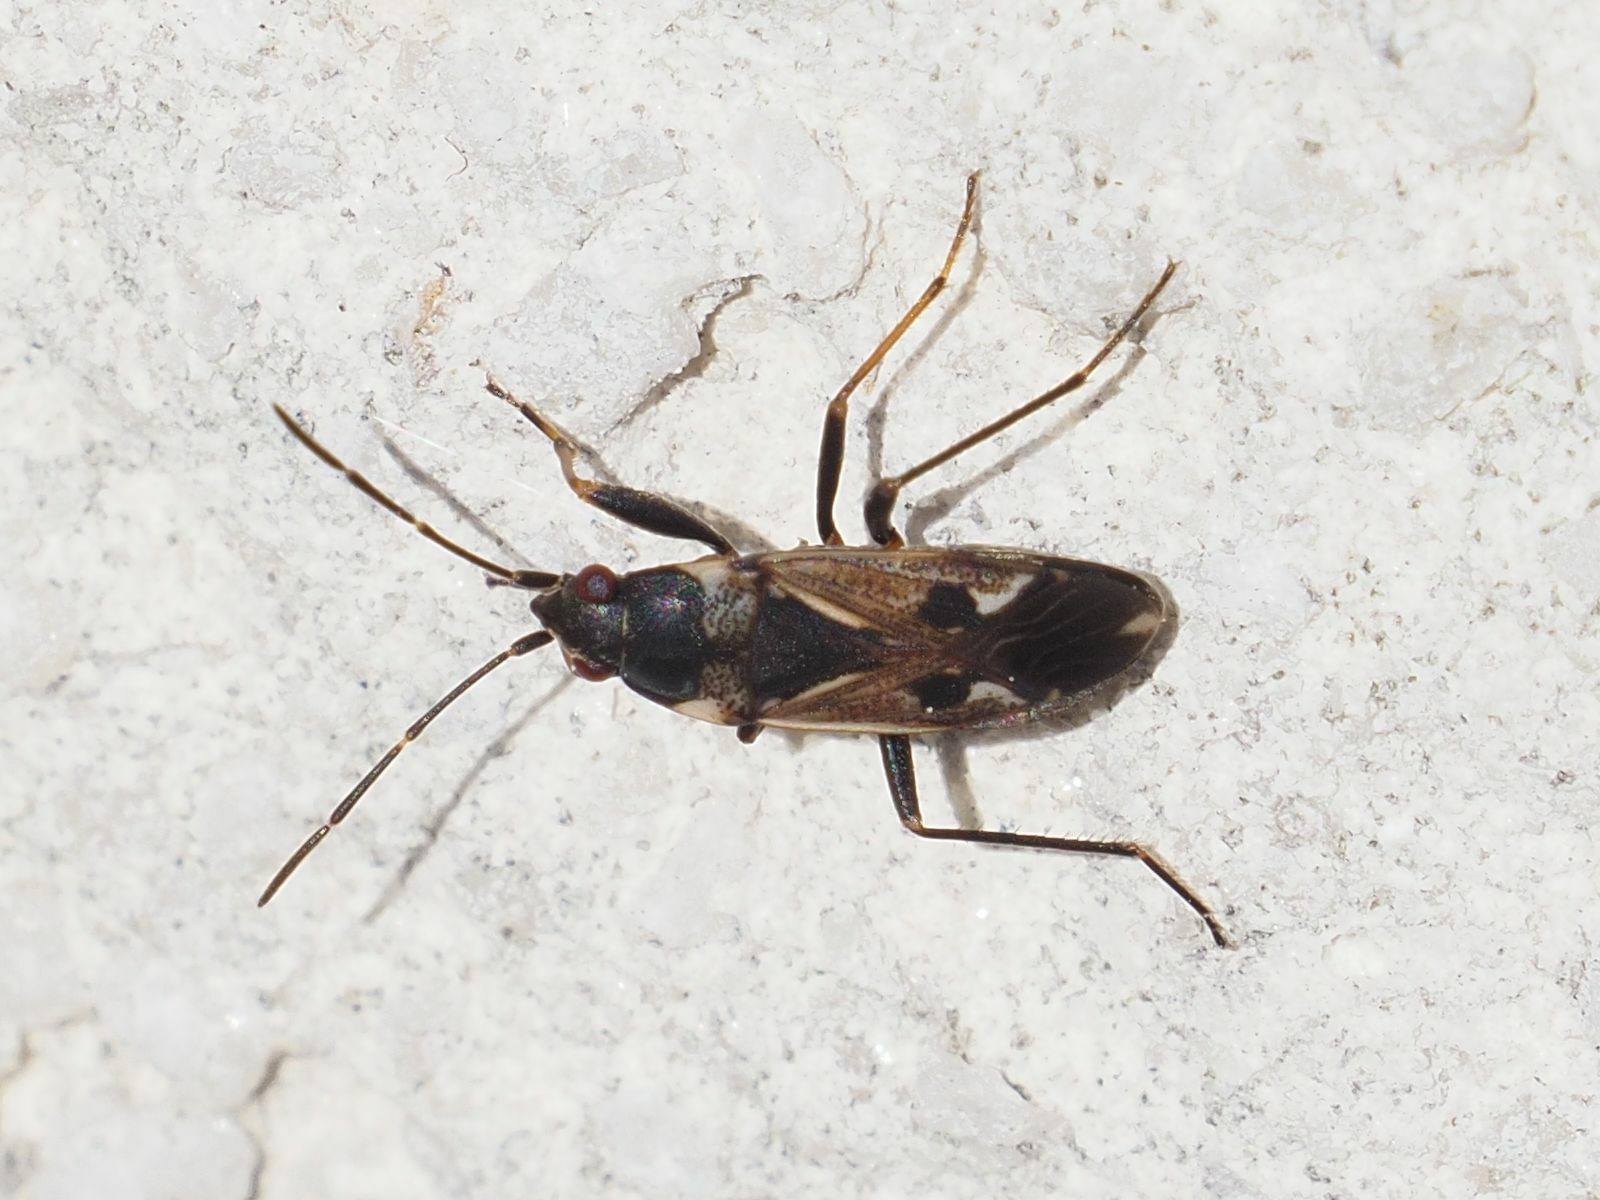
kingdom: Animalia
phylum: Arthropoda
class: Insecta
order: Hemiptera
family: Rhyparochromidae
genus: Rhyparochromus
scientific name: Rhyparochromus vulgaris
